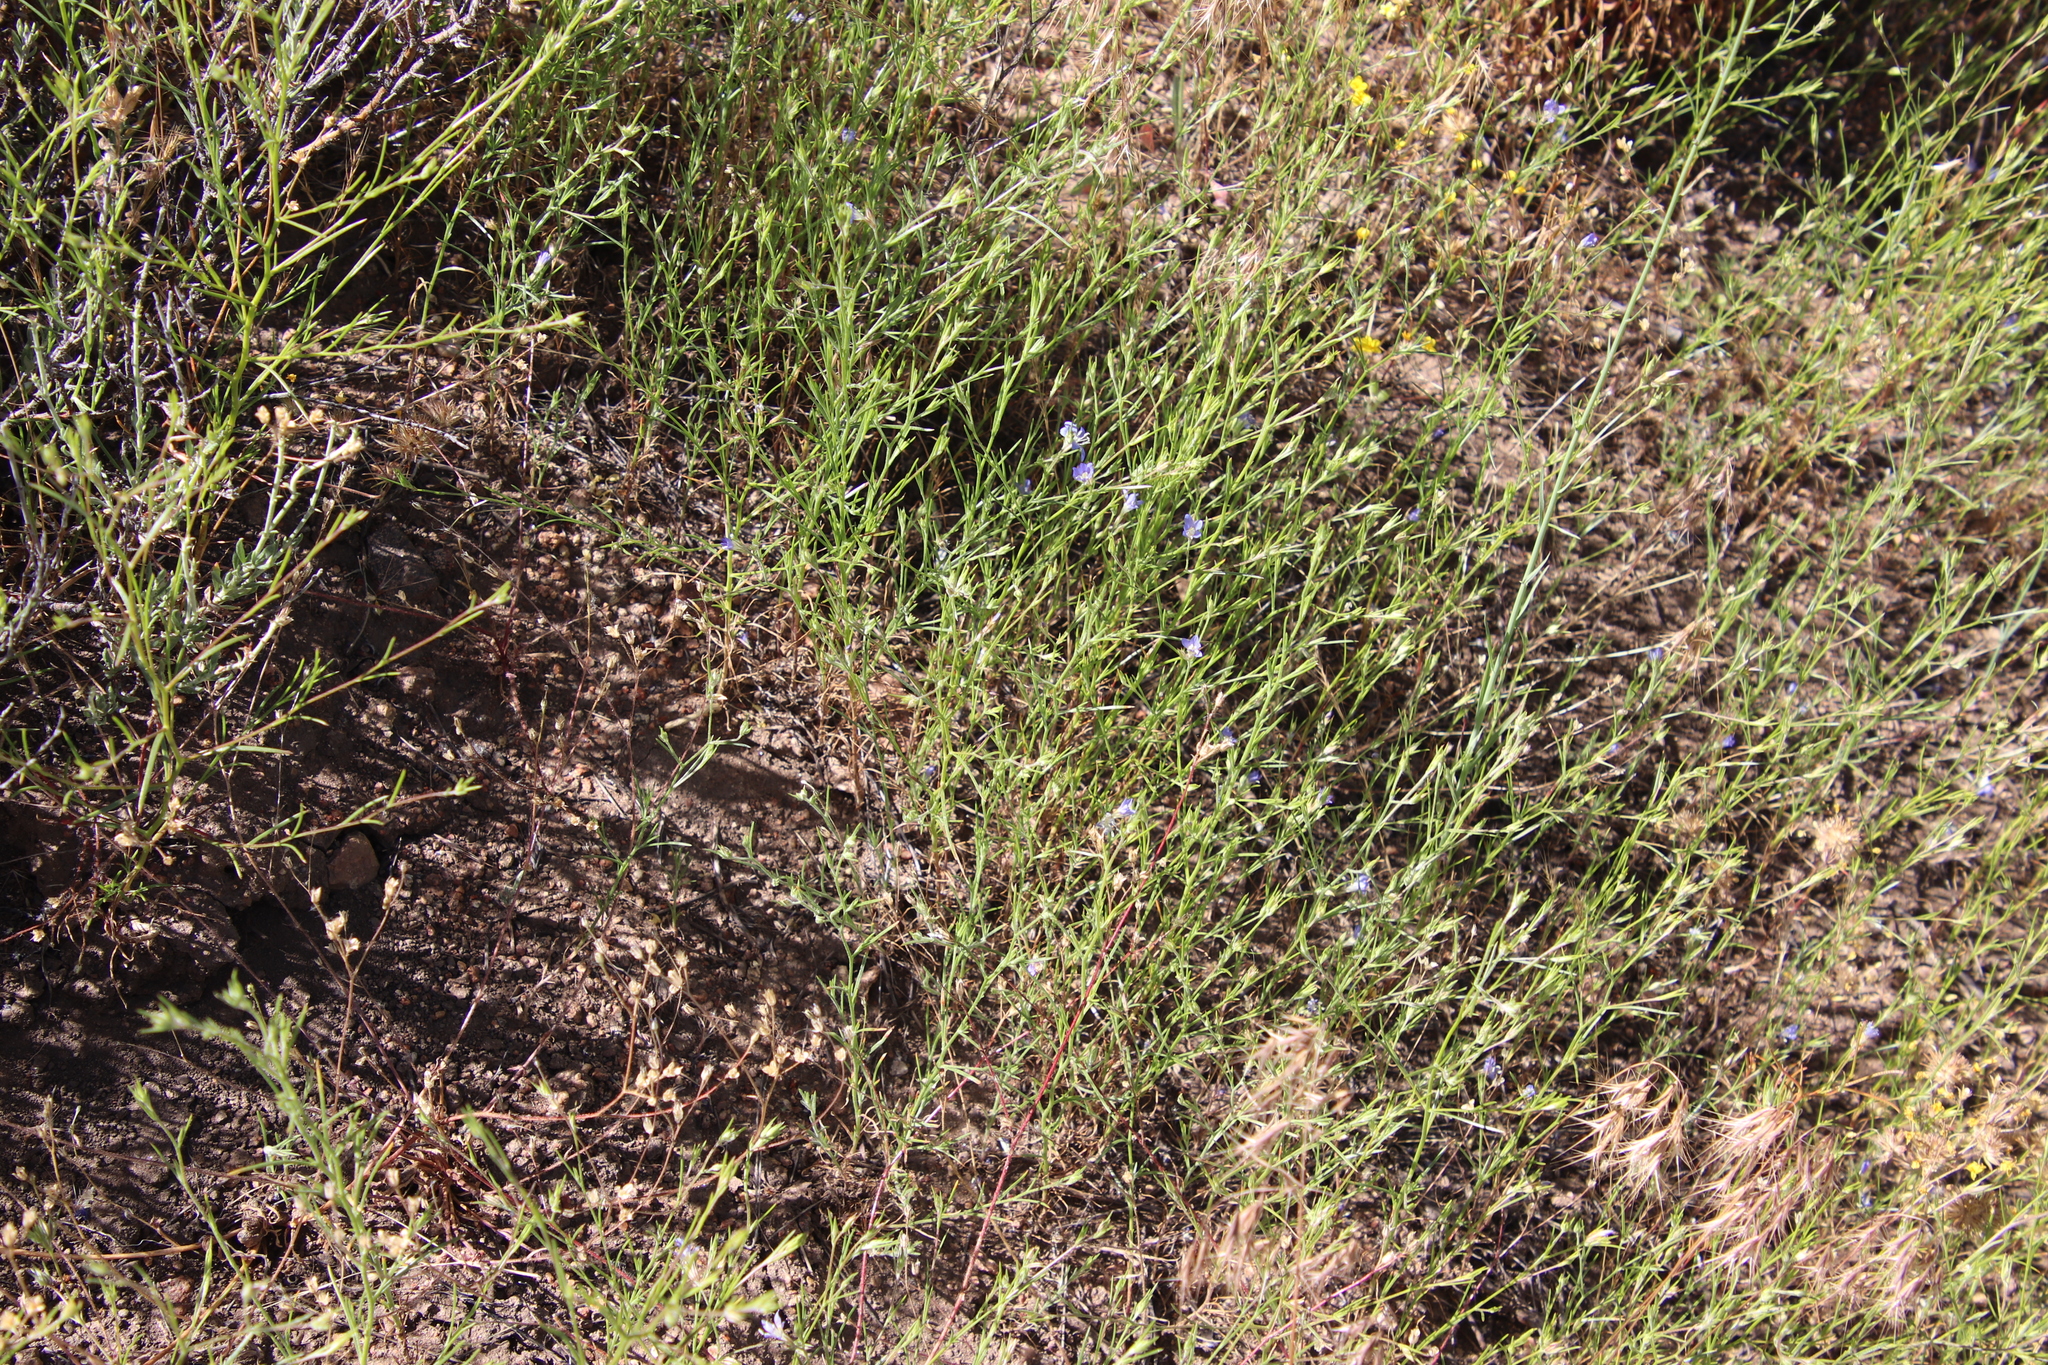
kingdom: Plantae
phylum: Tracheophyta
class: Magnoliopsida
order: Ericales
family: Polemoniaceae
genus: Eriastrum
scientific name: Eriastrum sapphirinum
